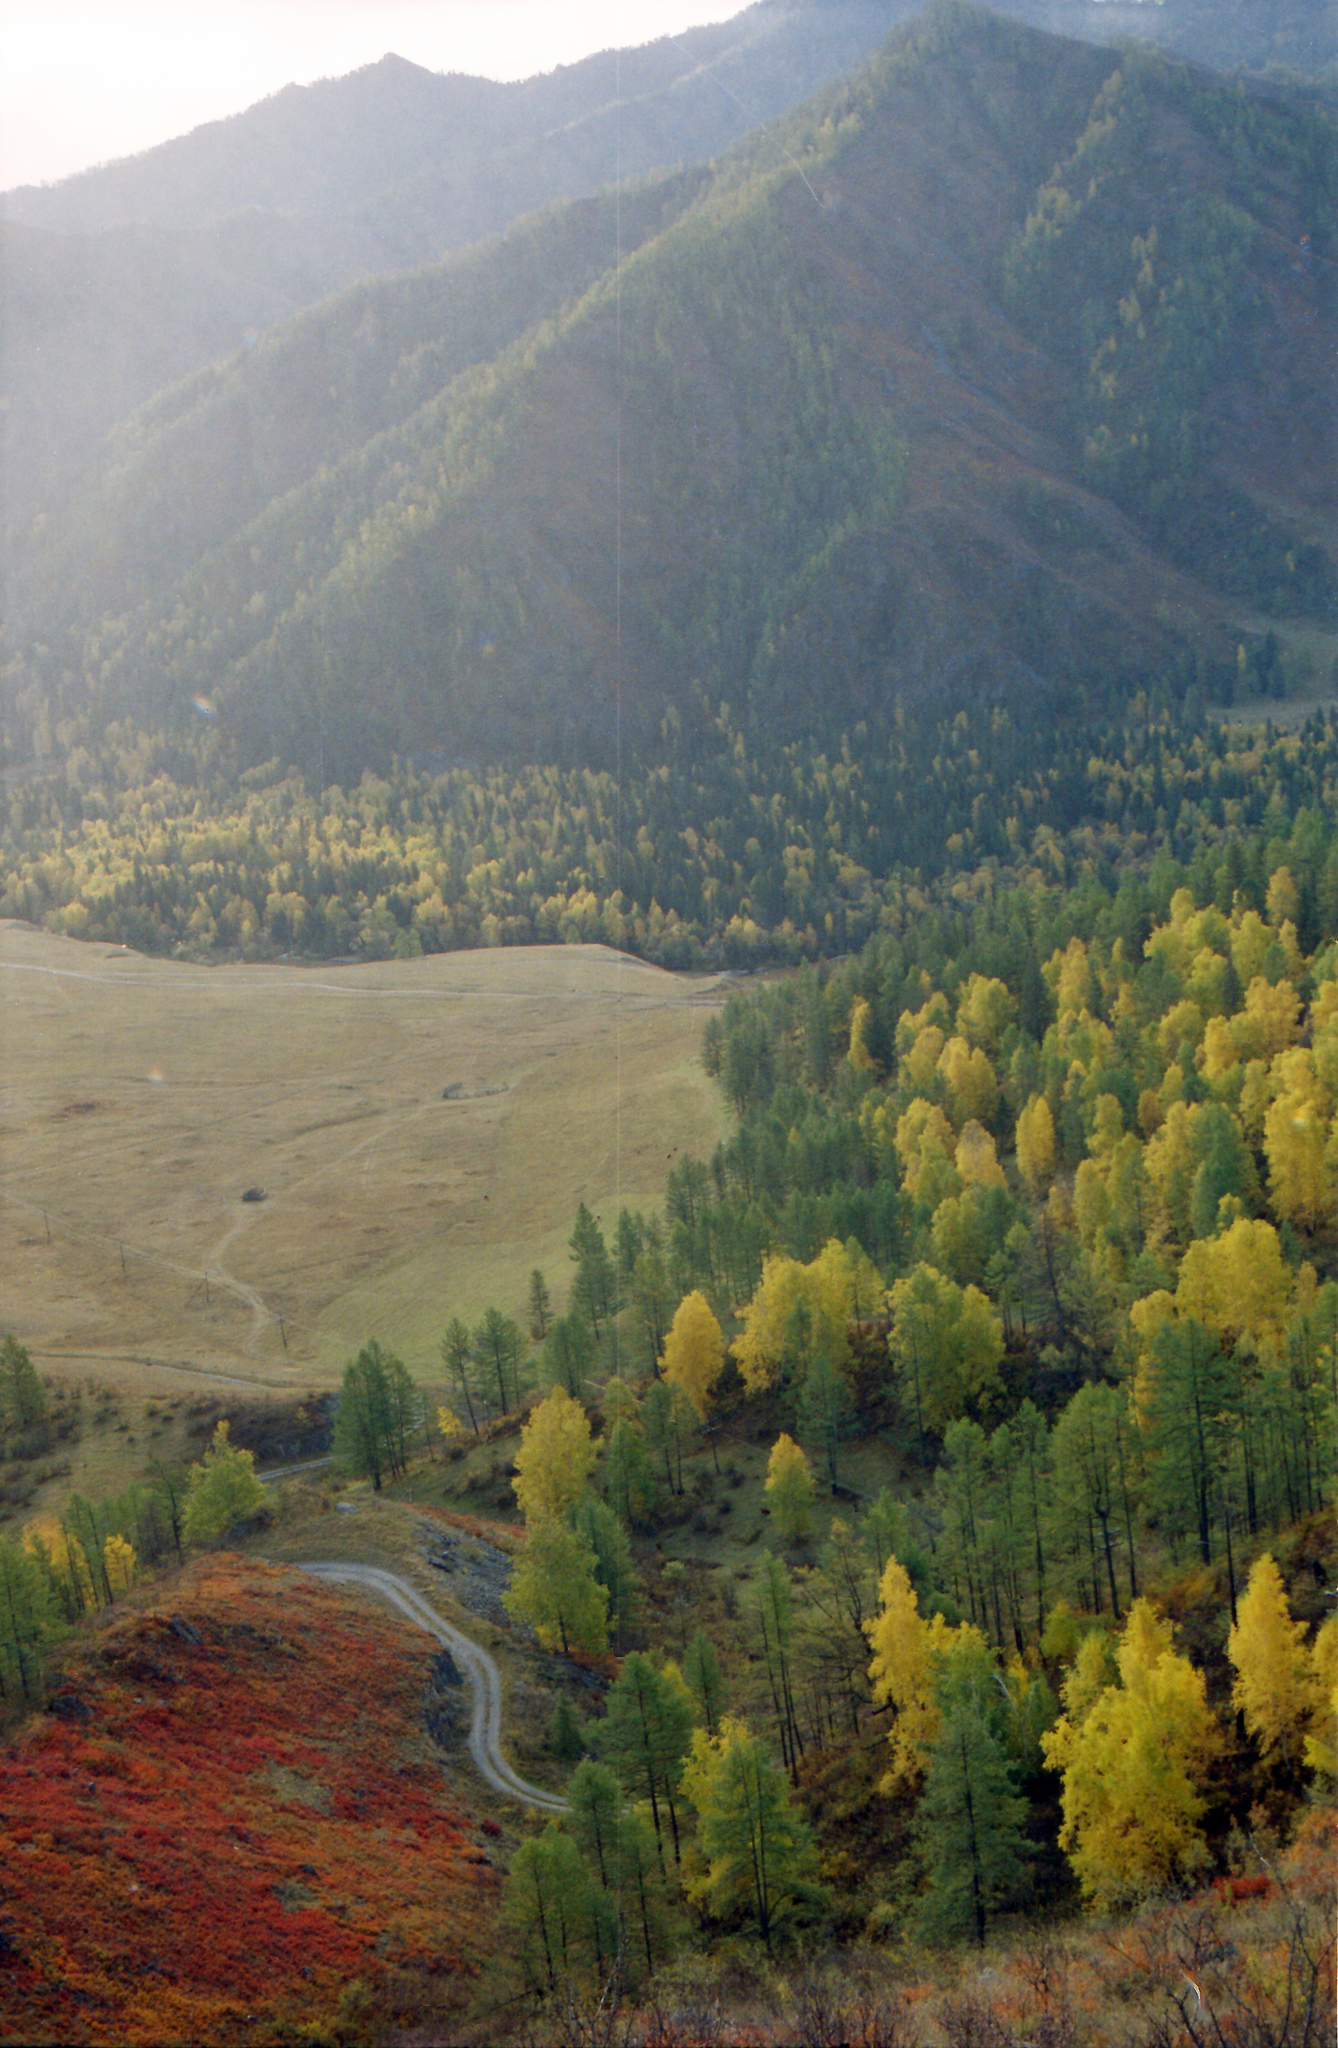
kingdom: Plantae
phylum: Tracheophyta
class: Pinopsida
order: Pinales
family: Pinaceae
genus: Larix
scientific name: Larix sibirica
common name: Siberian larch
